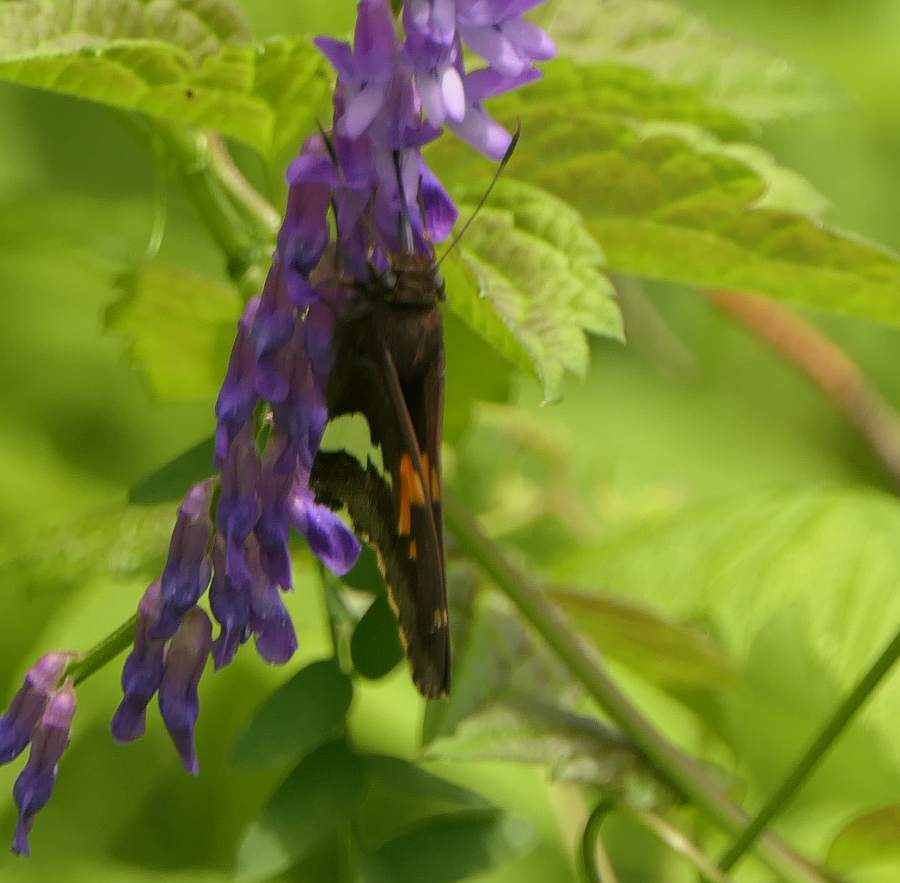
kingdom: Animalia
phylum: Arthropoda
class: Insecta
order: Lepidoptera
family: Hesperiidae
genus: Epargyreus
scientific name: Epargyreus clarus
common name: Silver-spotted skipper
